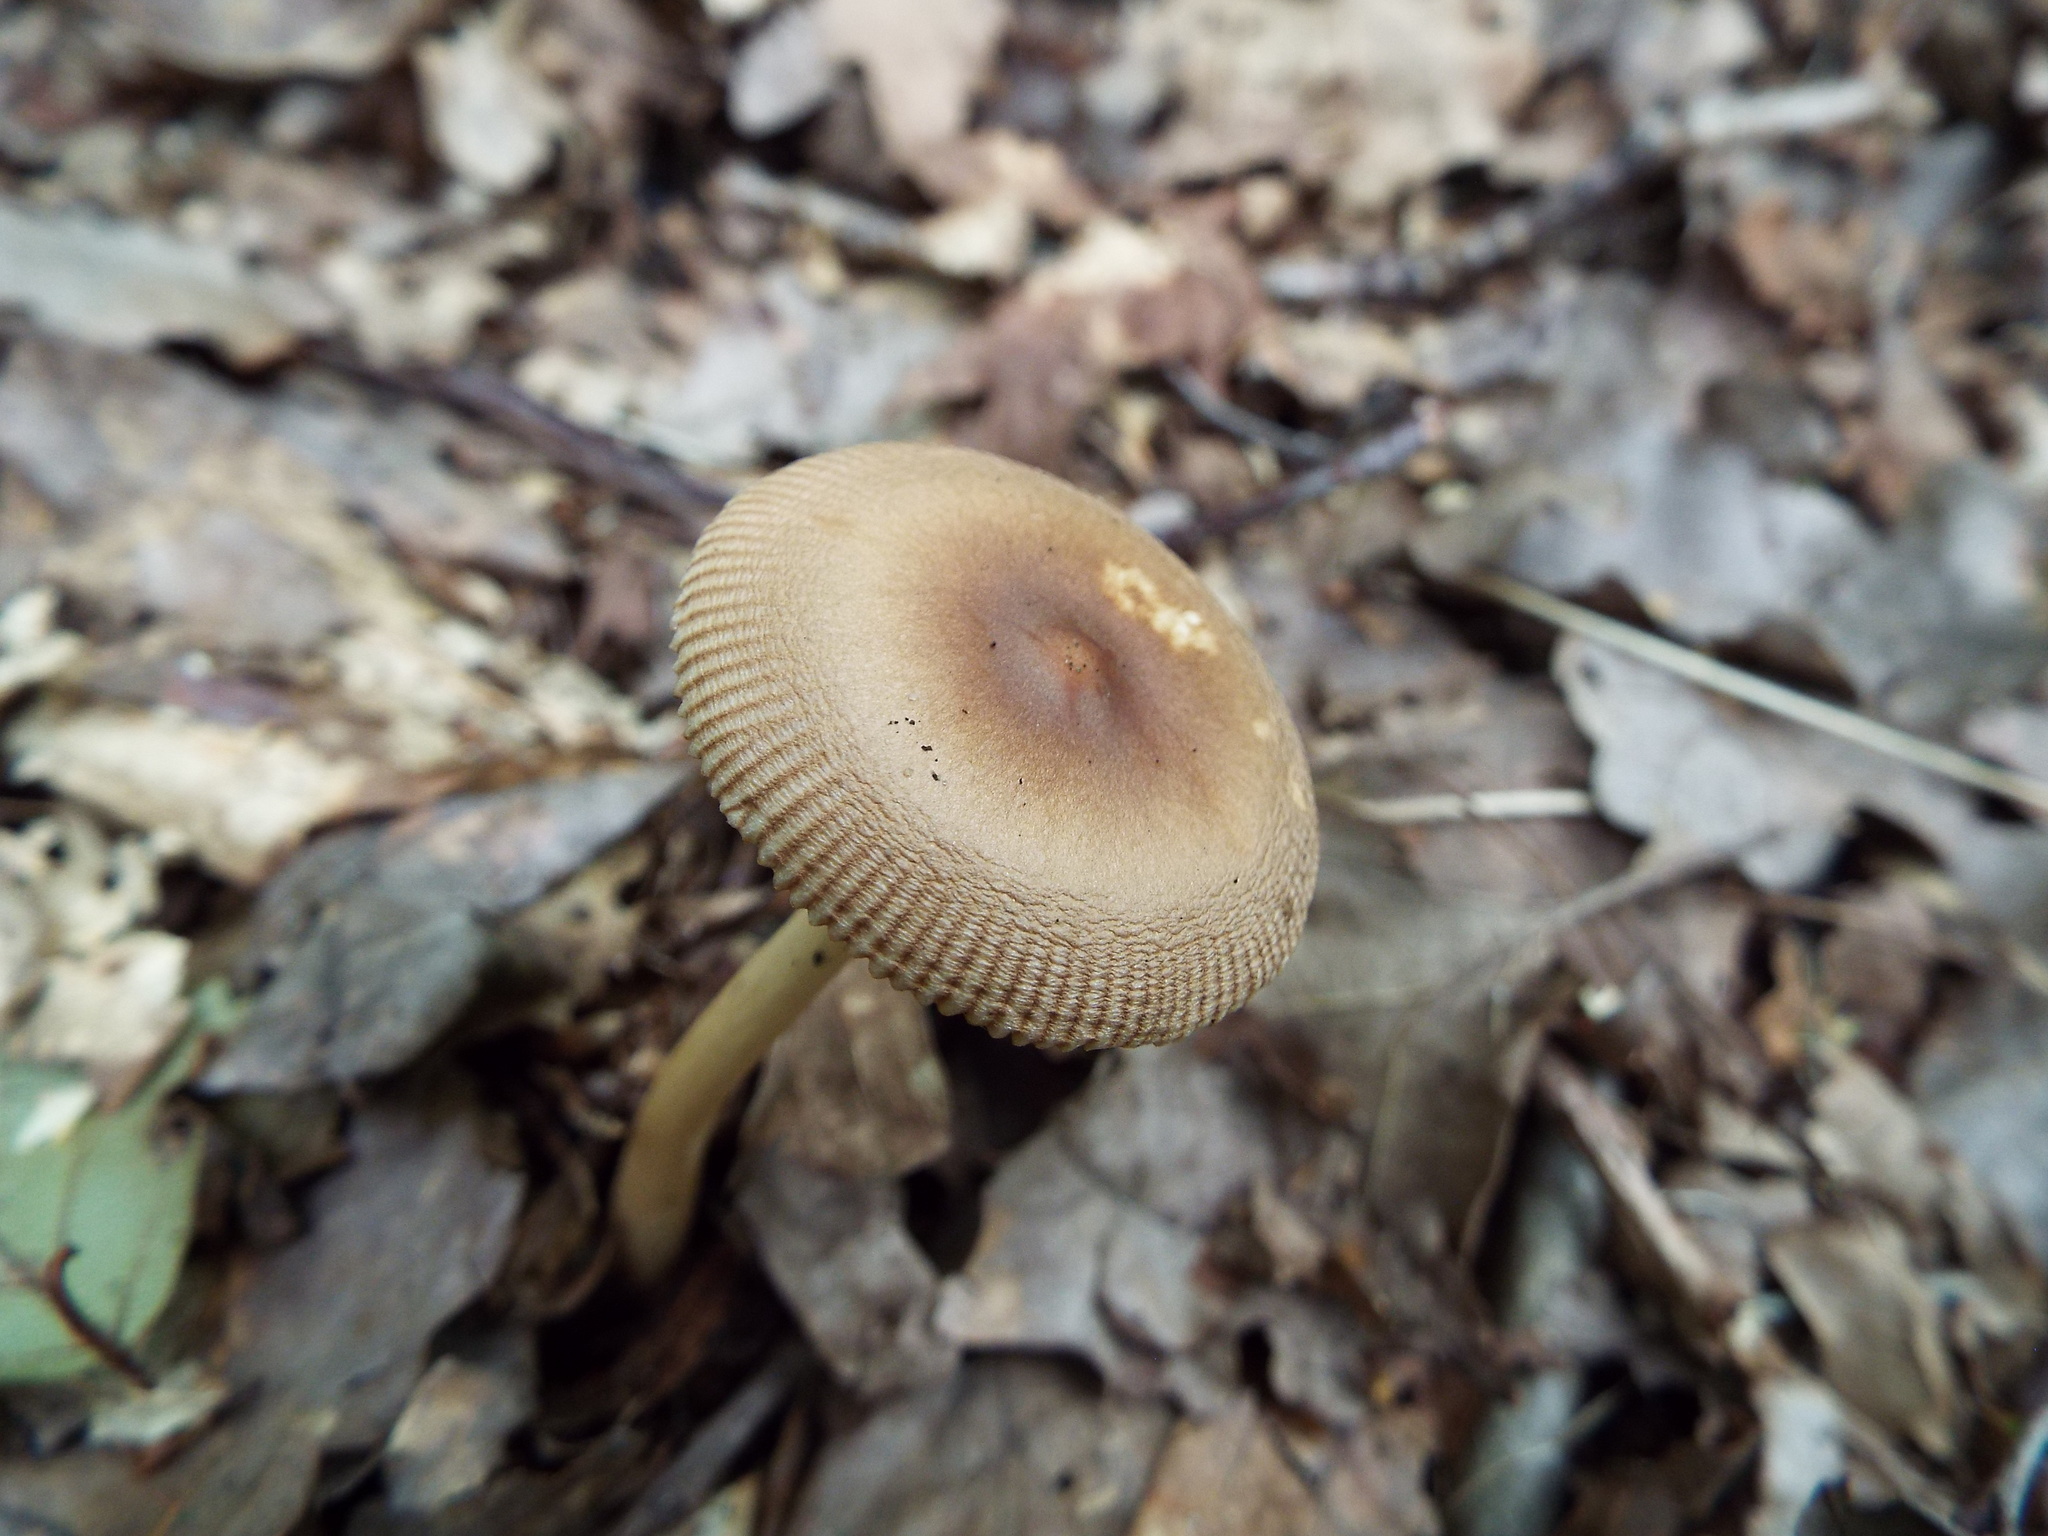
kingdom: Fungi
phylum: Basidiomycota
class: Agaricomycetes
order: Agaricales
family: Amanitaceae
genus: Amanita
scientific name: Amanita fulva
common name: Tawny grisette
